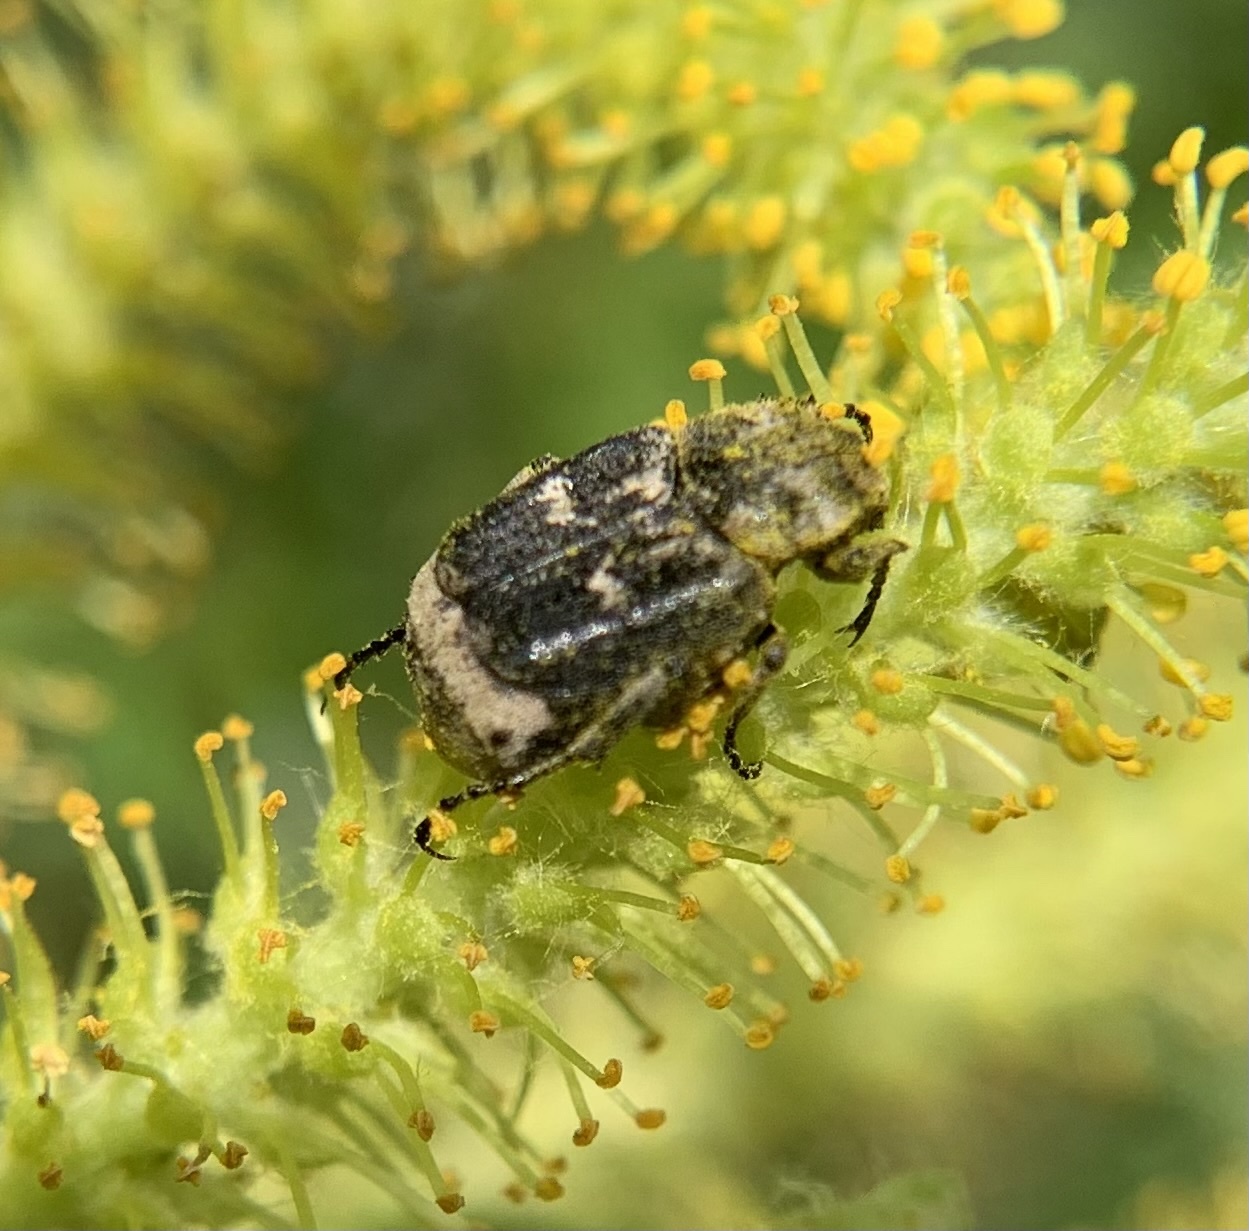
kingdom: Animalia
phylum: Arthropoda
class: Insecta
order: Coleoptera
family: Scarabaeidae
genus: Valgus
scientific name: Valgus hemipterus
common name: Bug flower chafer
